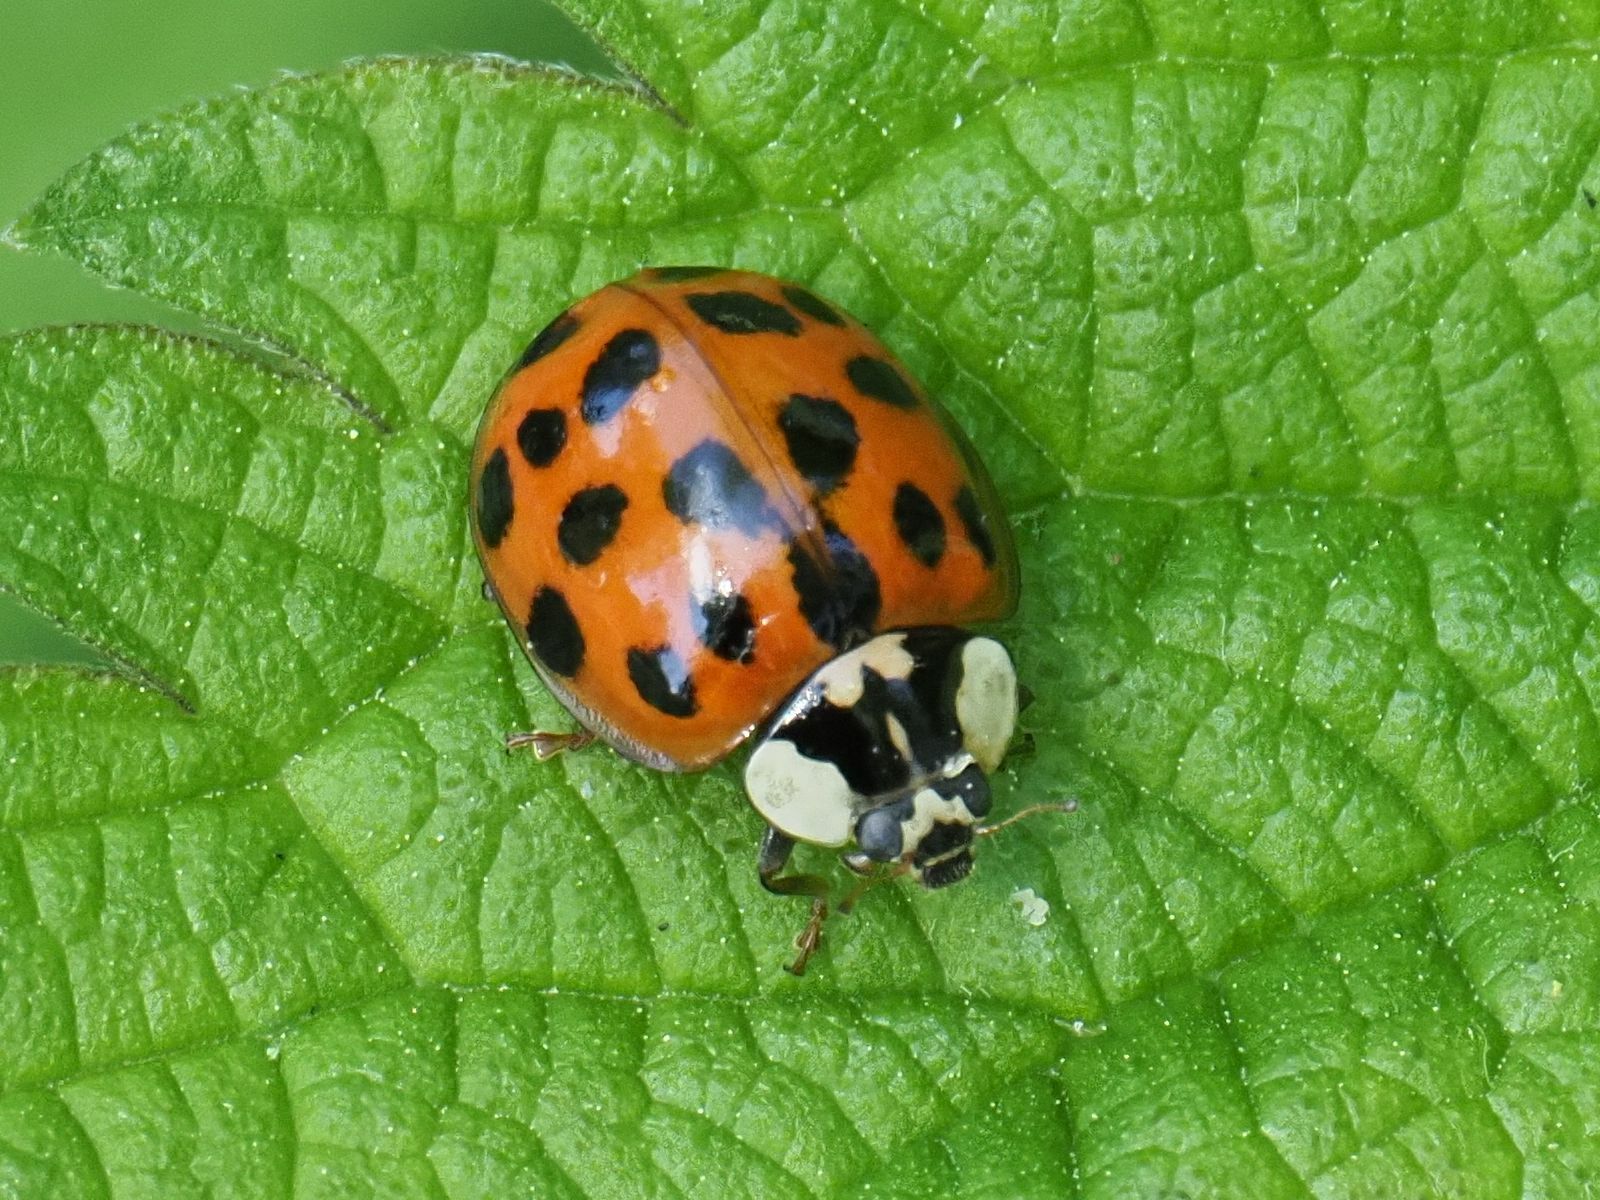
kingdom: Animalia
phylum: Arthropoda
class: Insecta
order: Coleoptera
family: Coccinellidae
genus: Harmonia
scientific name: Harmonia axyridis
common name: Harlequin ladybird
